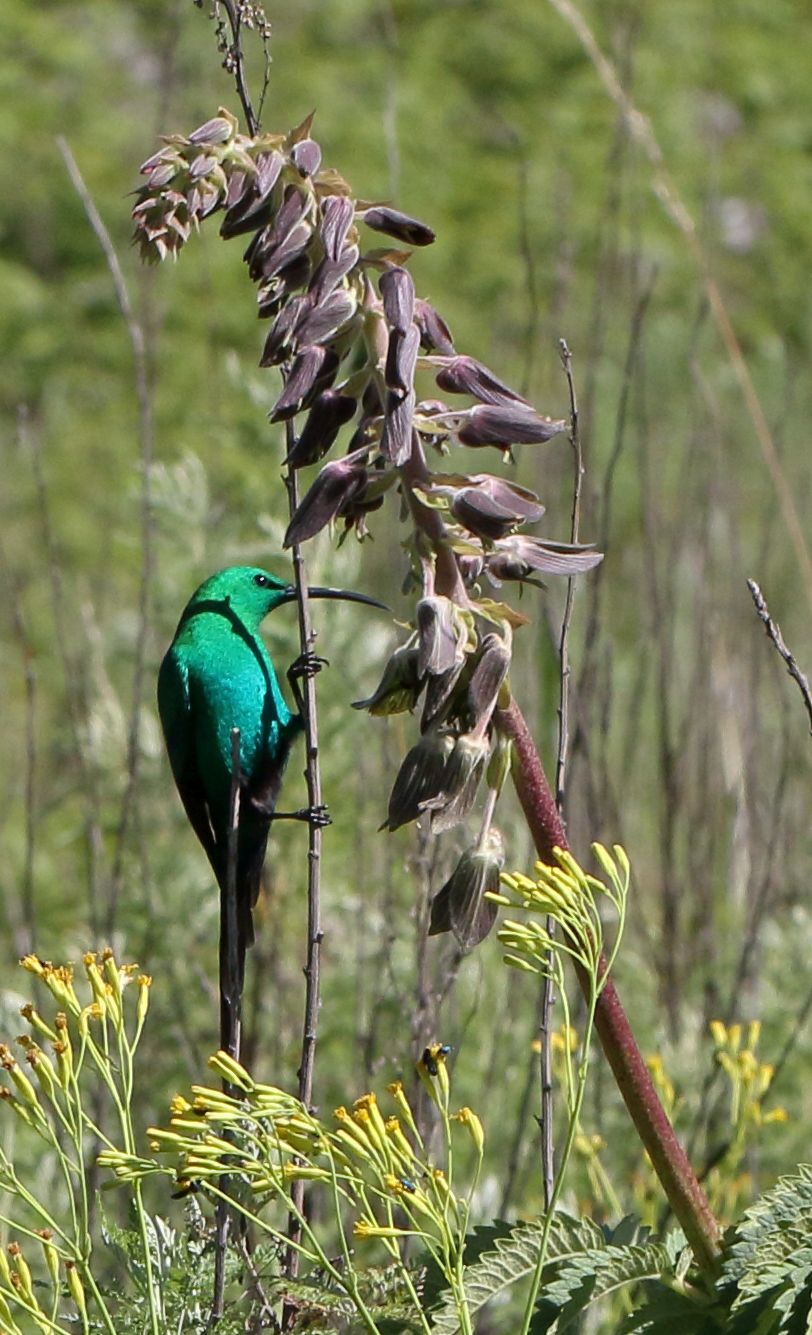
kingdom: Animalia
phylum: Chordata
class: Aves
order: Passeriformes
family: Nectariniidae
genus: Nectarinia
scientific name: Nectarinia famosa
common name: Malachite sunbird
